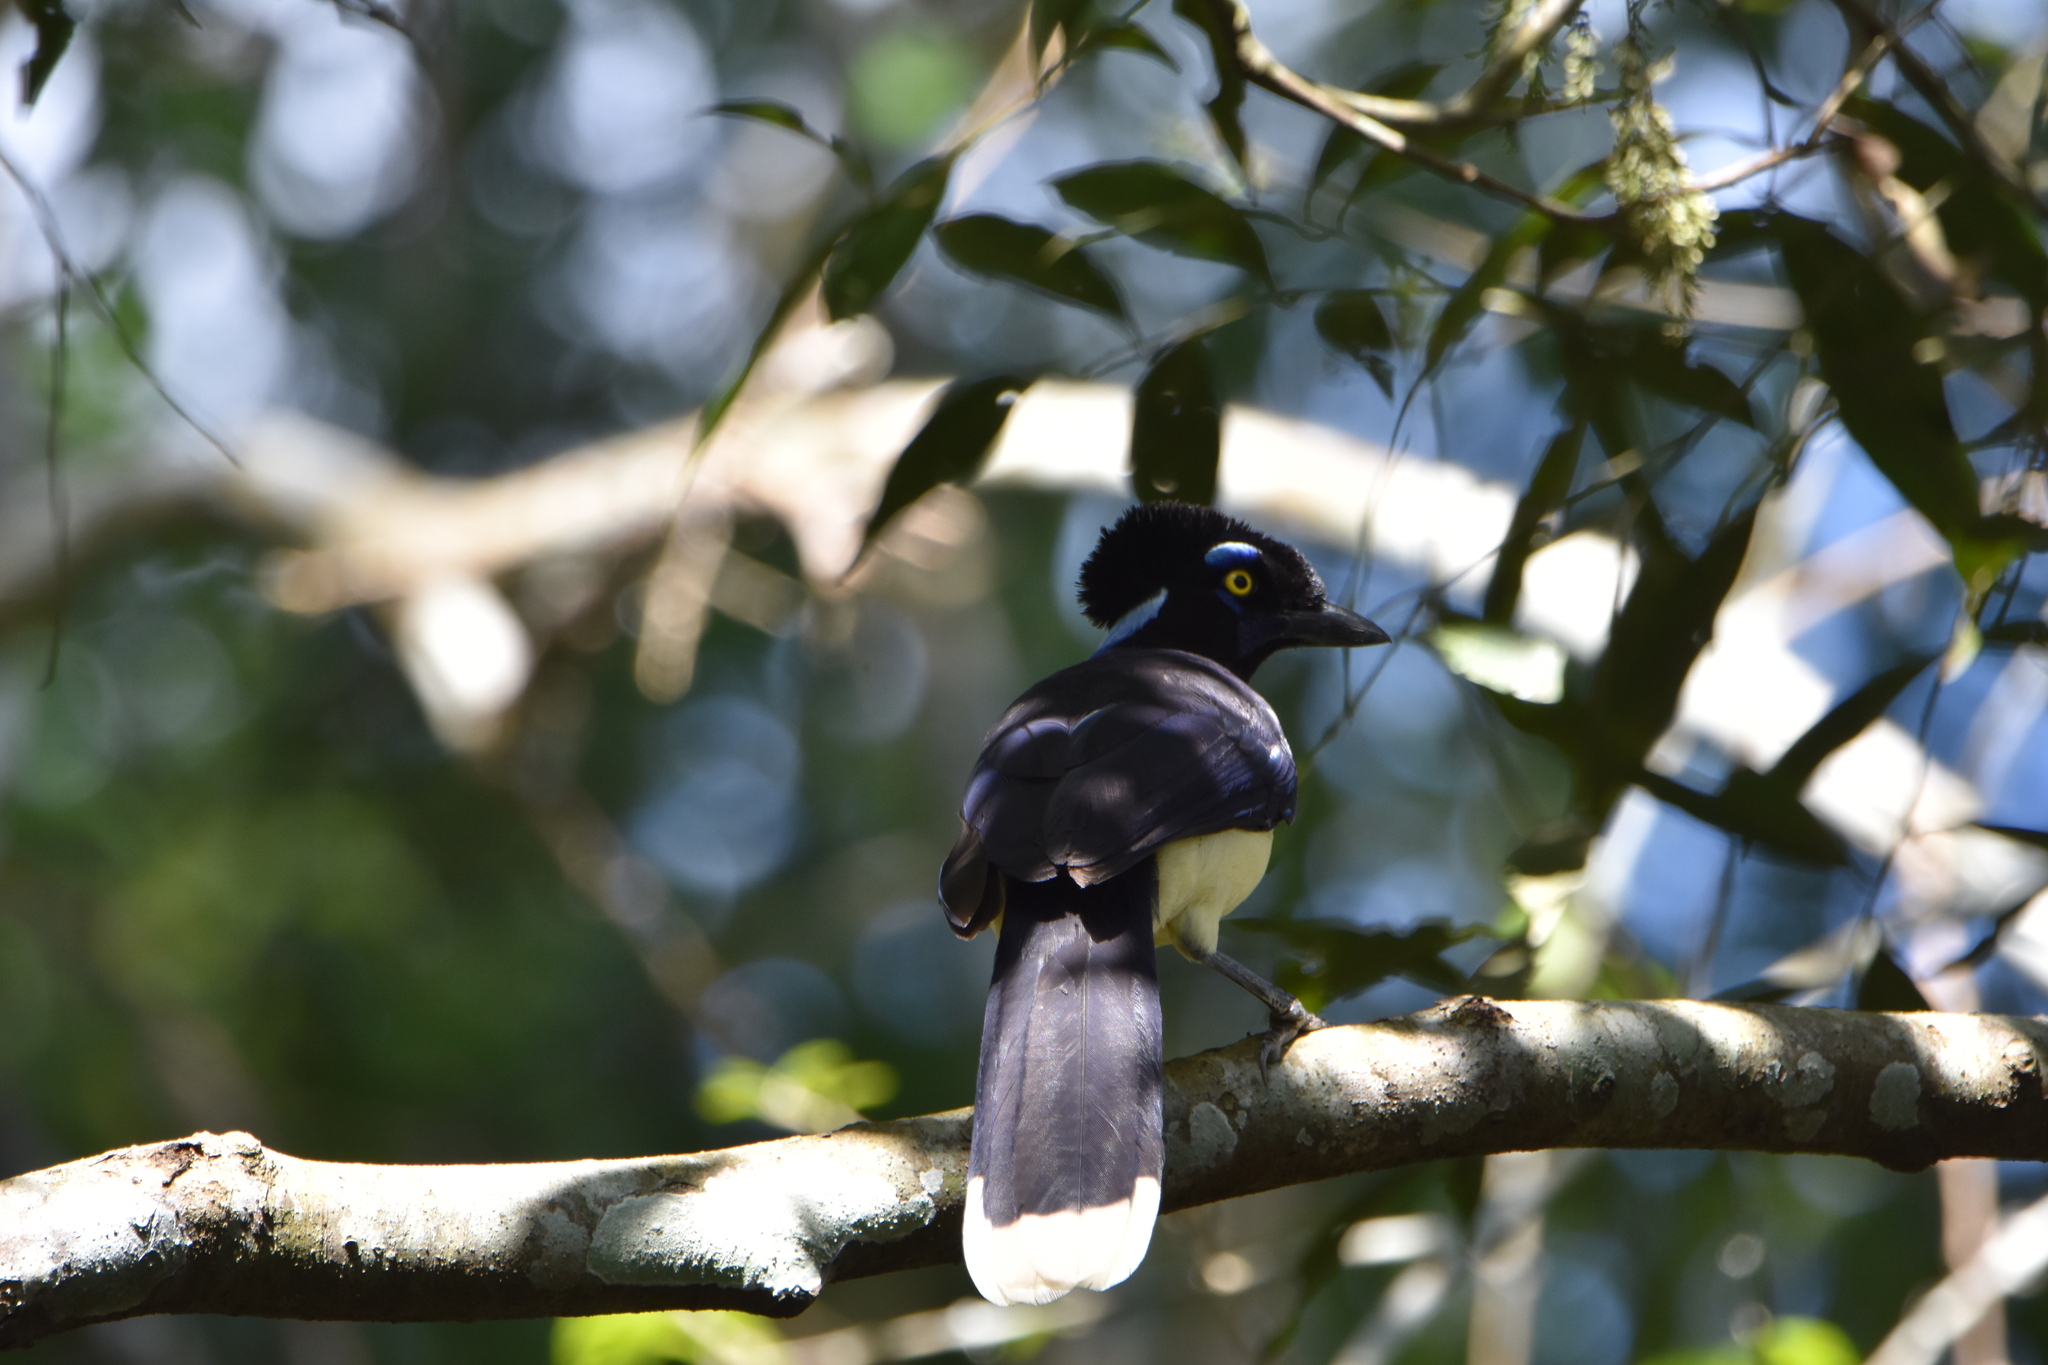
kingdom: Animalia
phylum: Chordata
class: Aves
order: Passeriformes
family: Corvidae
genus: Cyanocorax
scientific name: Cyanocorax chrysops
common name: Plush-crested jay
